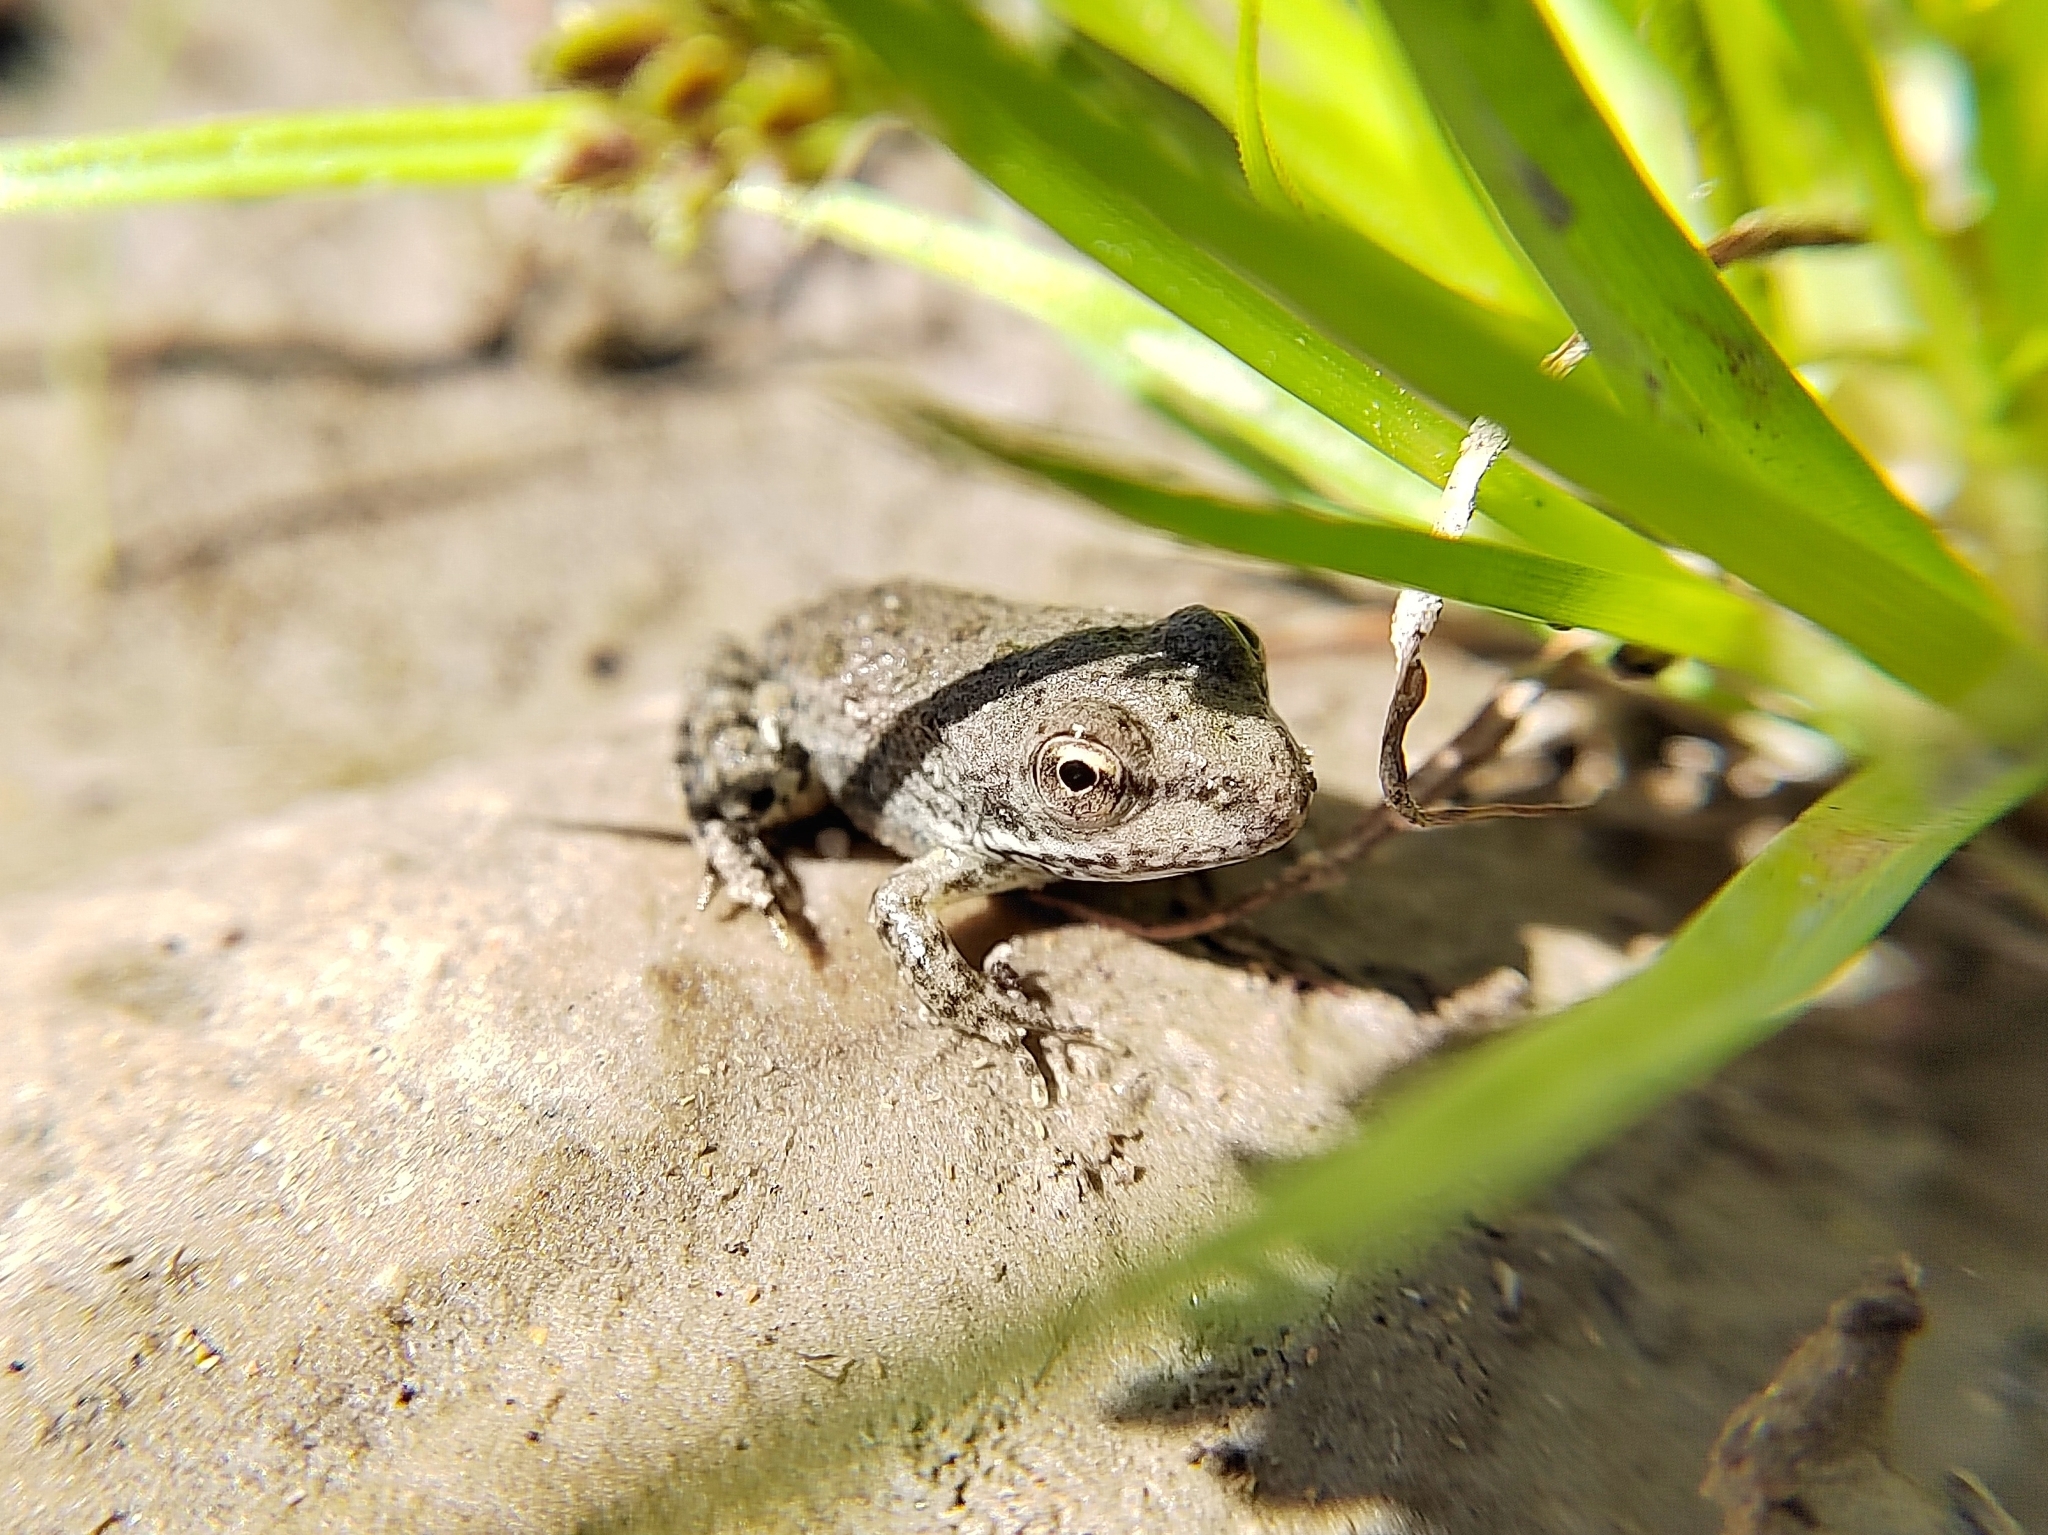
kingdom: Animalia
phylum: Chordata
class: Amphibia
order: Anura
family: Ranidae
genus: Pelophylax
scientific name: Pelophylax ridibundus
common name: Marsh frog
